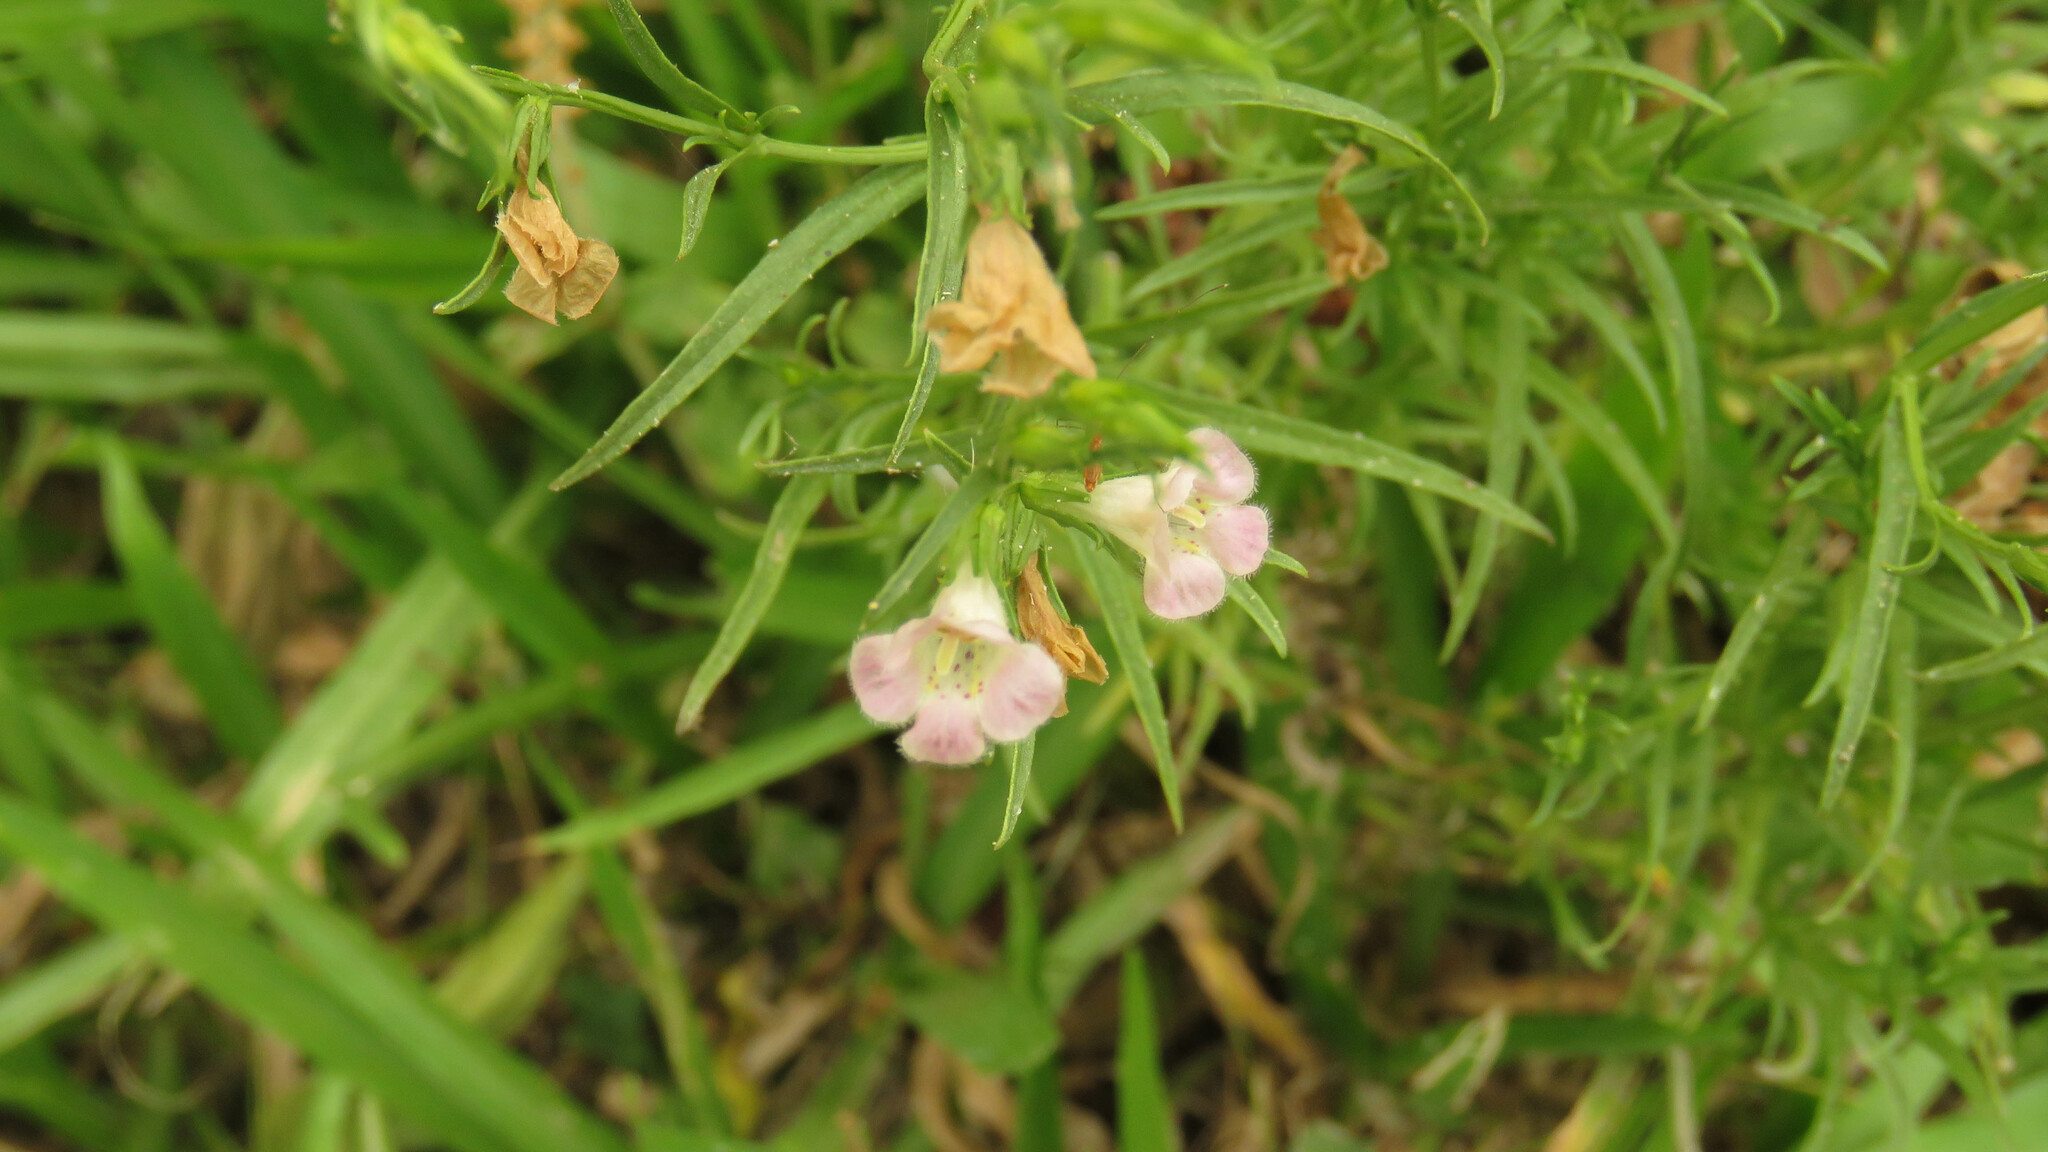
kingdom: Plantae
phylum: Tracheophyta
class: Magnoliopsida
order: Lamiales
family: Orobanchaceae
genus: Agalinis
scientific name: Agalinis communis
